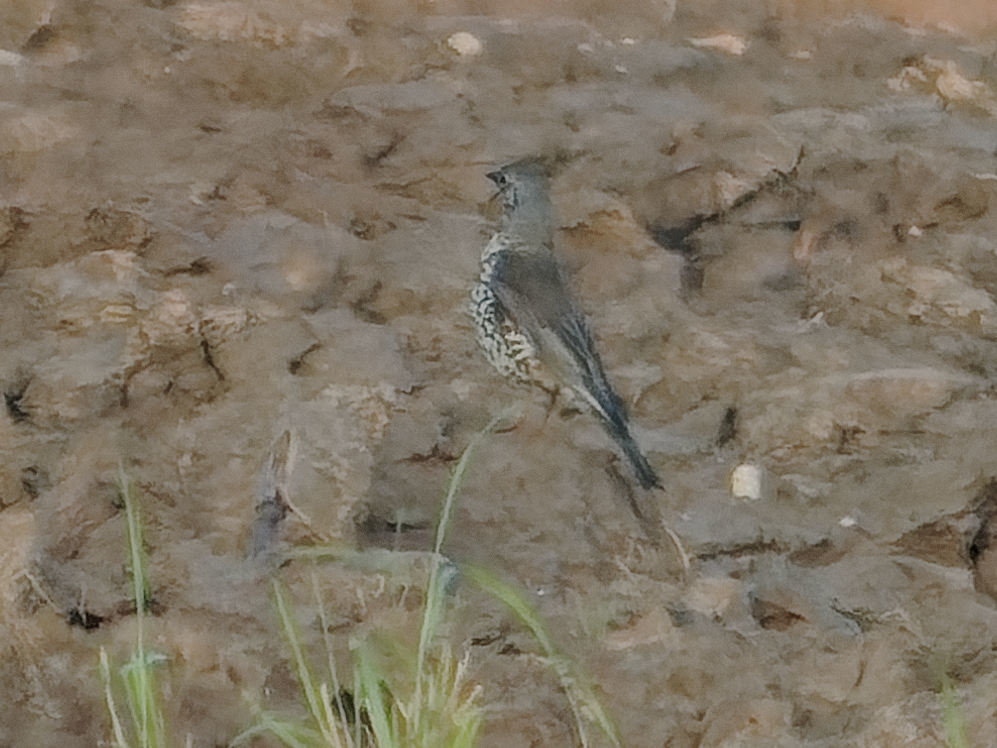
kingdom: Animalia
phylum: Chordata
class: Aves
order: Passeriformes
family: Turdidae
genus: Turdus
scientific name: Turdus viscivorus
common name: Mistle thrush
